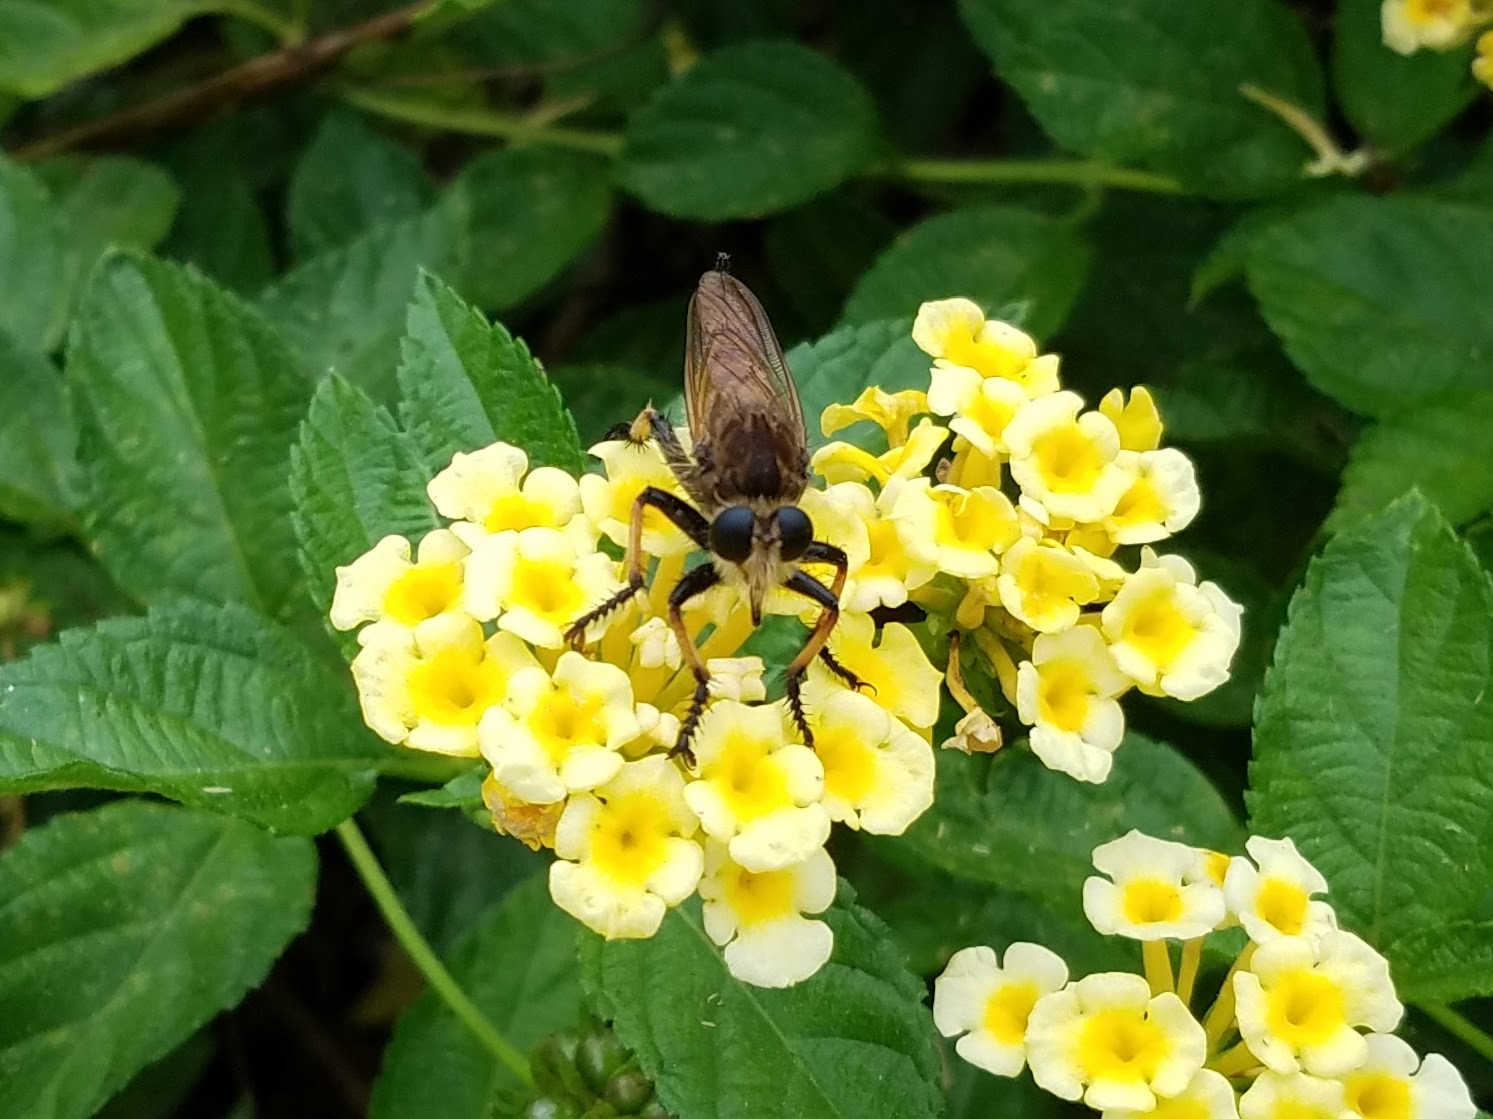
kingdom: Animalia
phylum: Arthropoda
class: Insecta
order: Diptera
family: Asilidae
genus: Promachus
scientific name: Promachus rufipes
